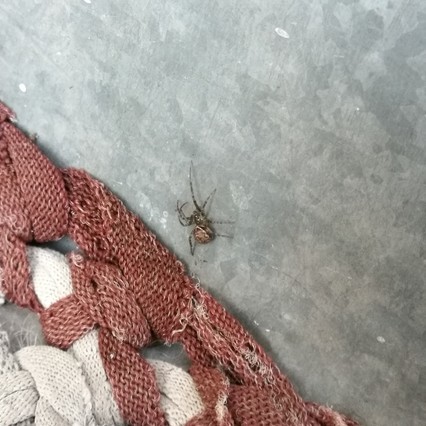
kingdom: Animalia
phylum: Arthropoda
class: Arachnida
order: Araneae
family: Theridiidae
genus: Steatoda
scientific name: Steatoda castanea
